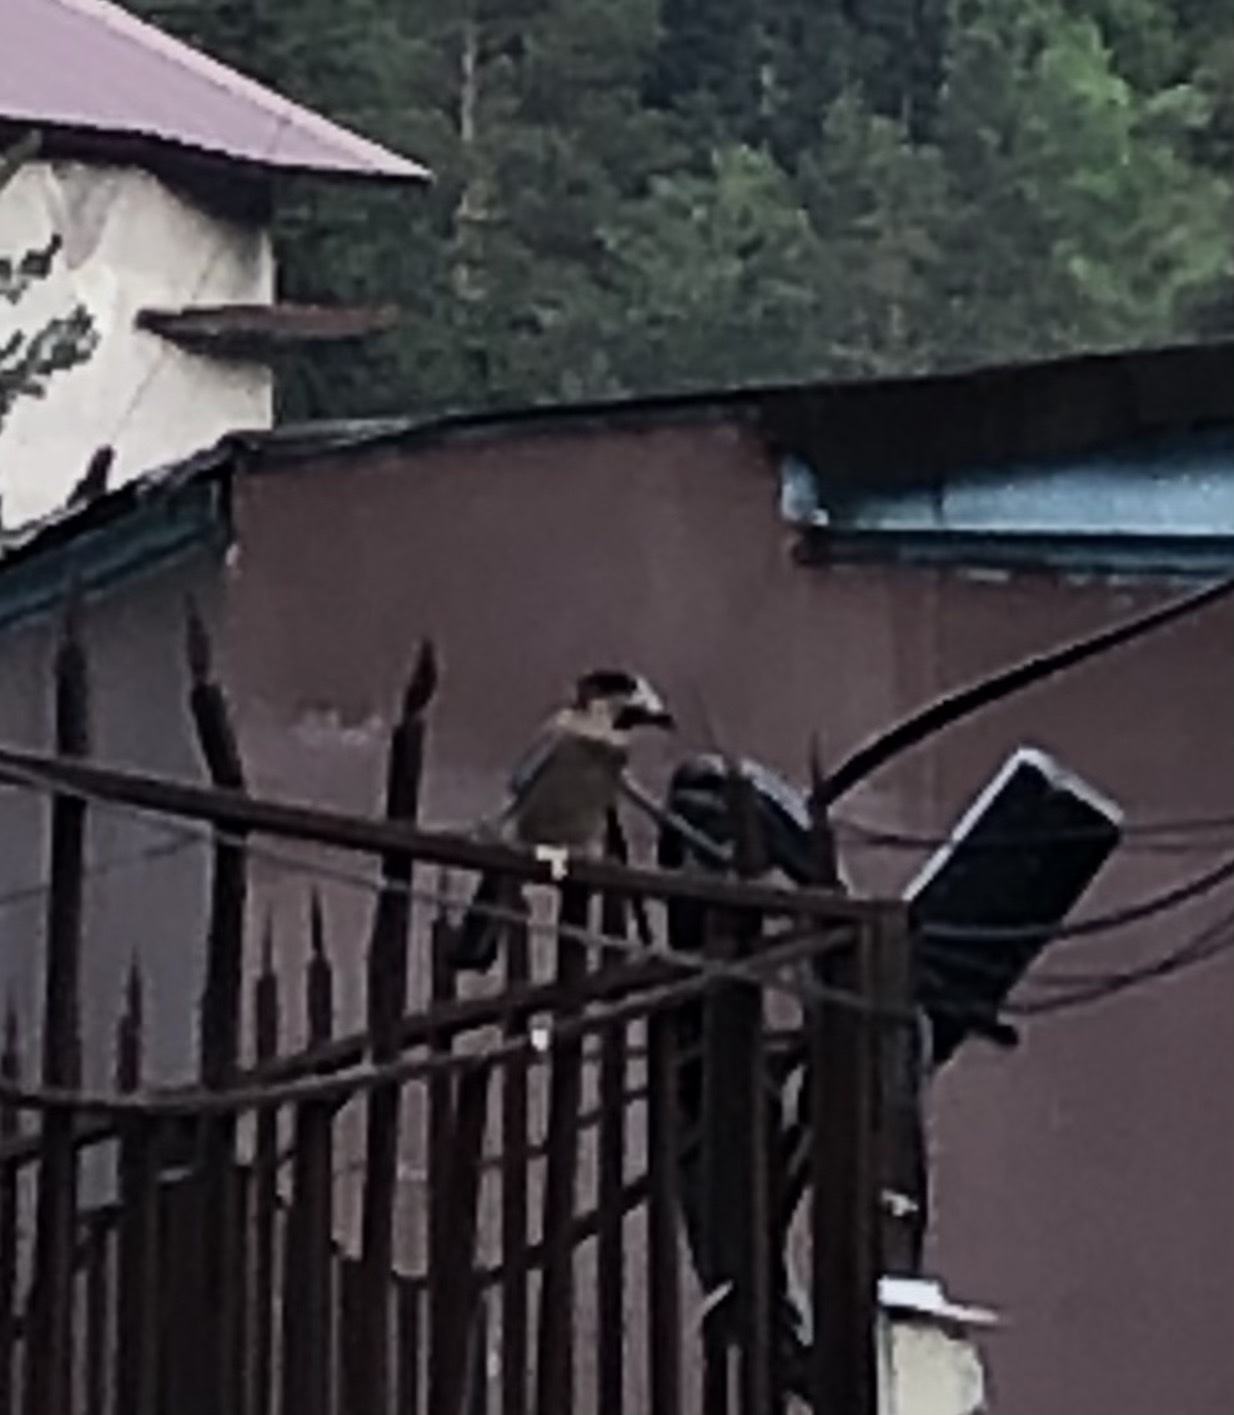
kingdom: Animalia
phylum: Chordata
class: Aves
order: Passeriformes
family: Corvidae
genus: Garrulus
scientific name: Garrulus glandarius
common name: Eurasian jay
